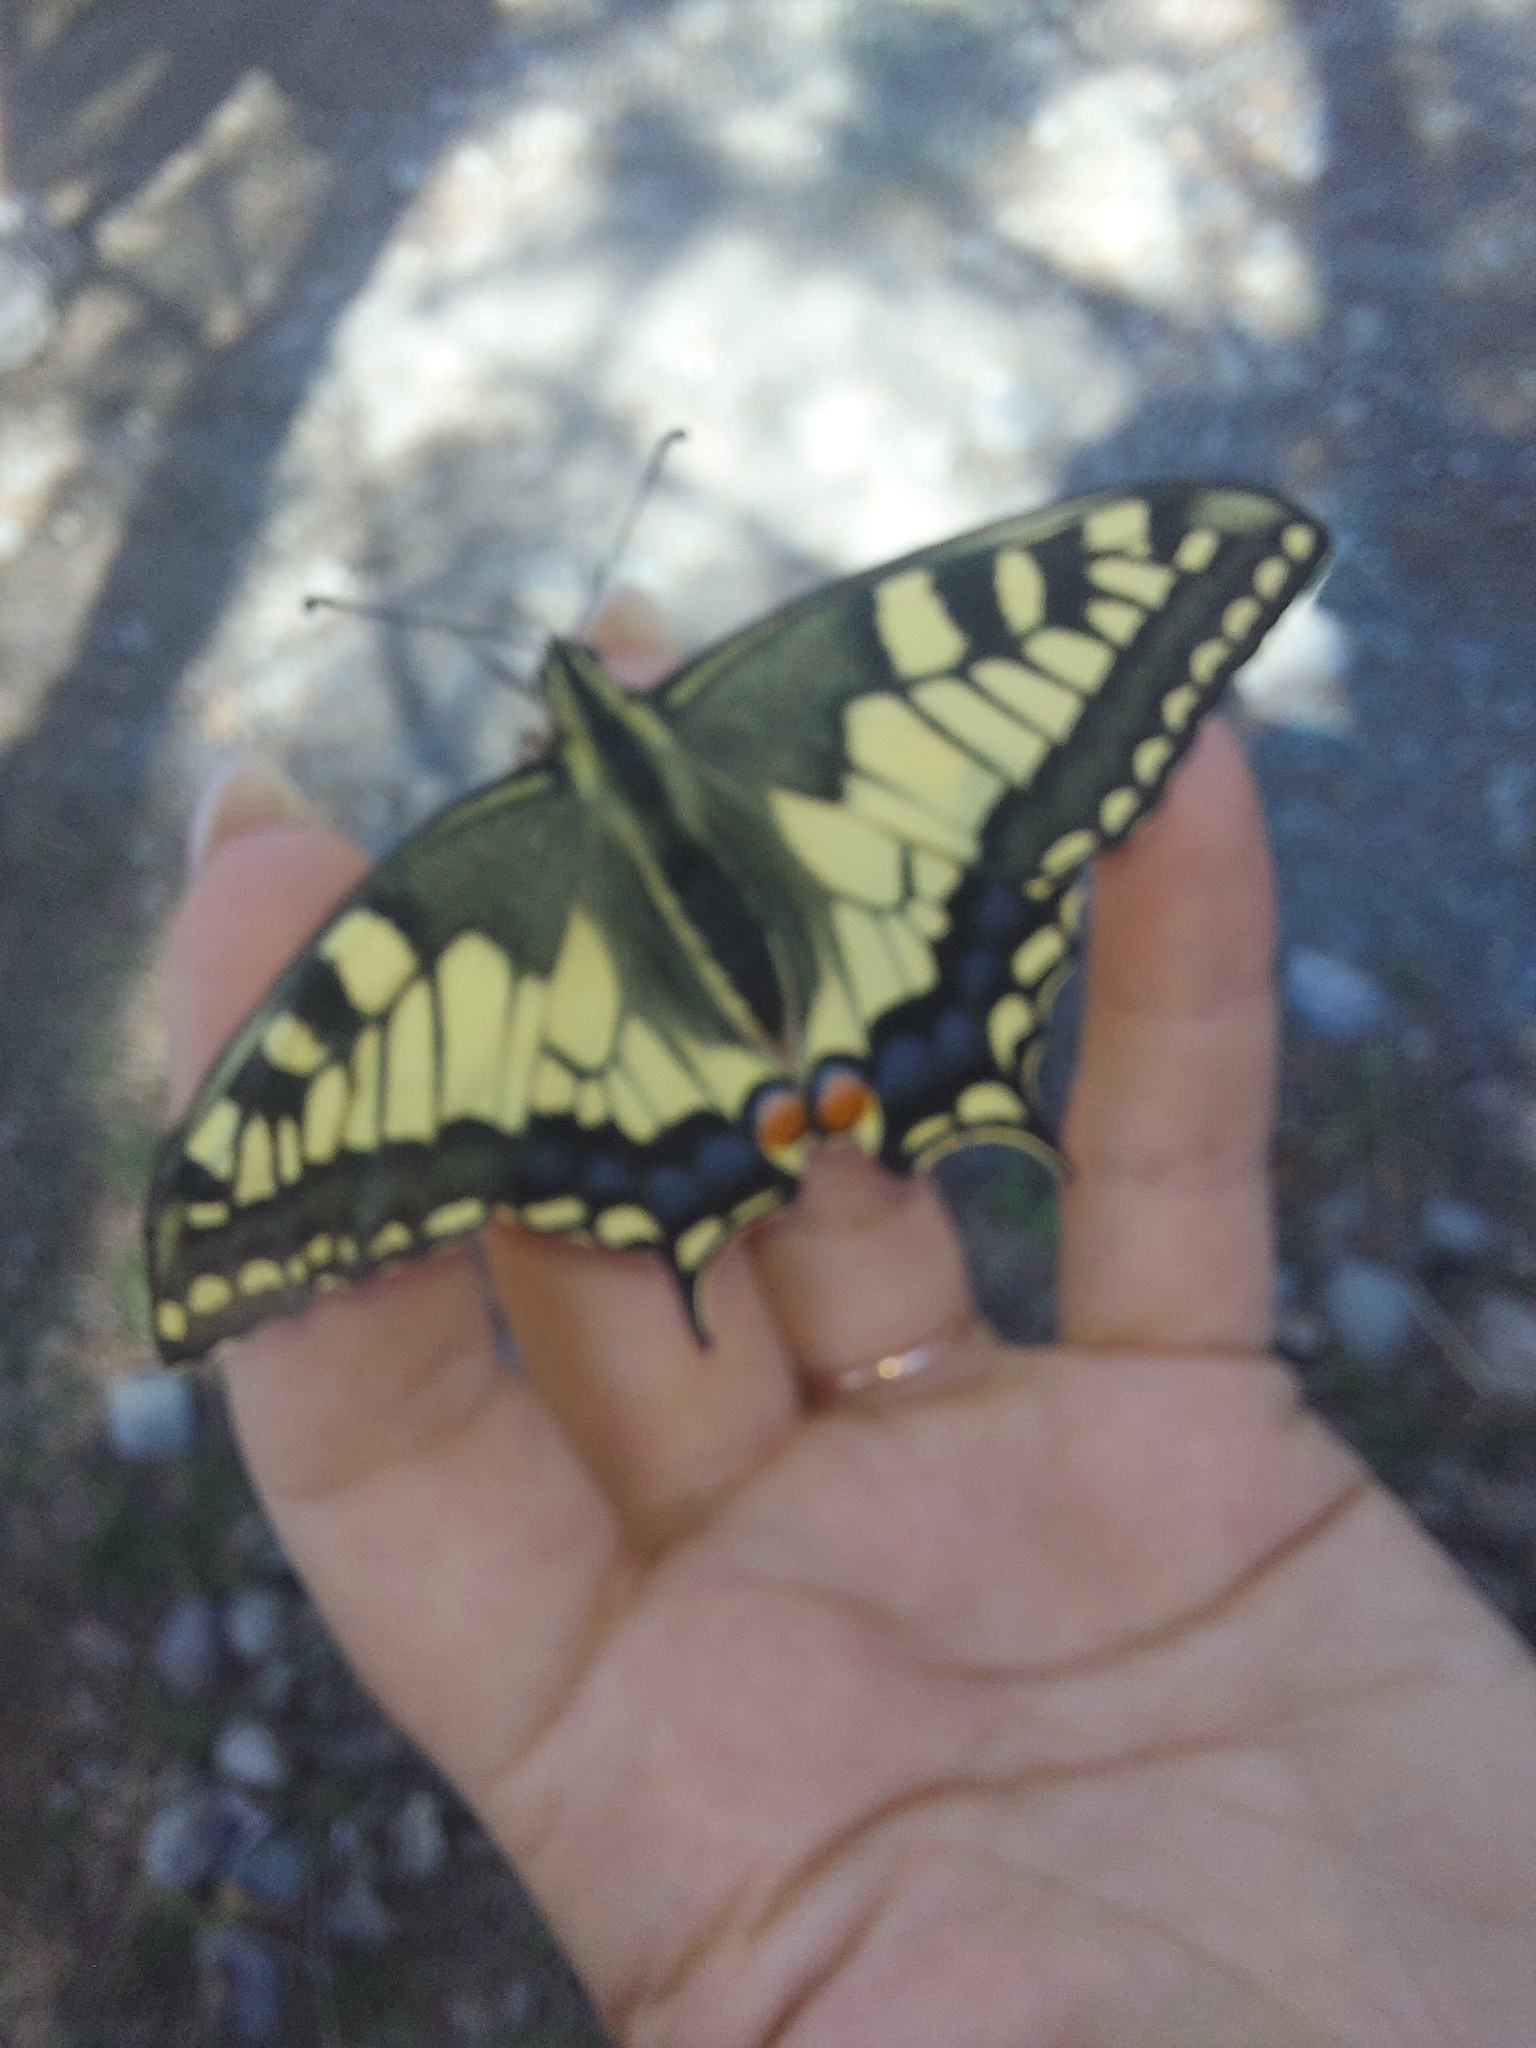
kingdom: Animalia
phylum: Arthropoda
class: Insecta
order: Lepidoptera
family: Papilionidae
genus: Papilio
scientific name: Papilio machaon
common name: Swallowtail
